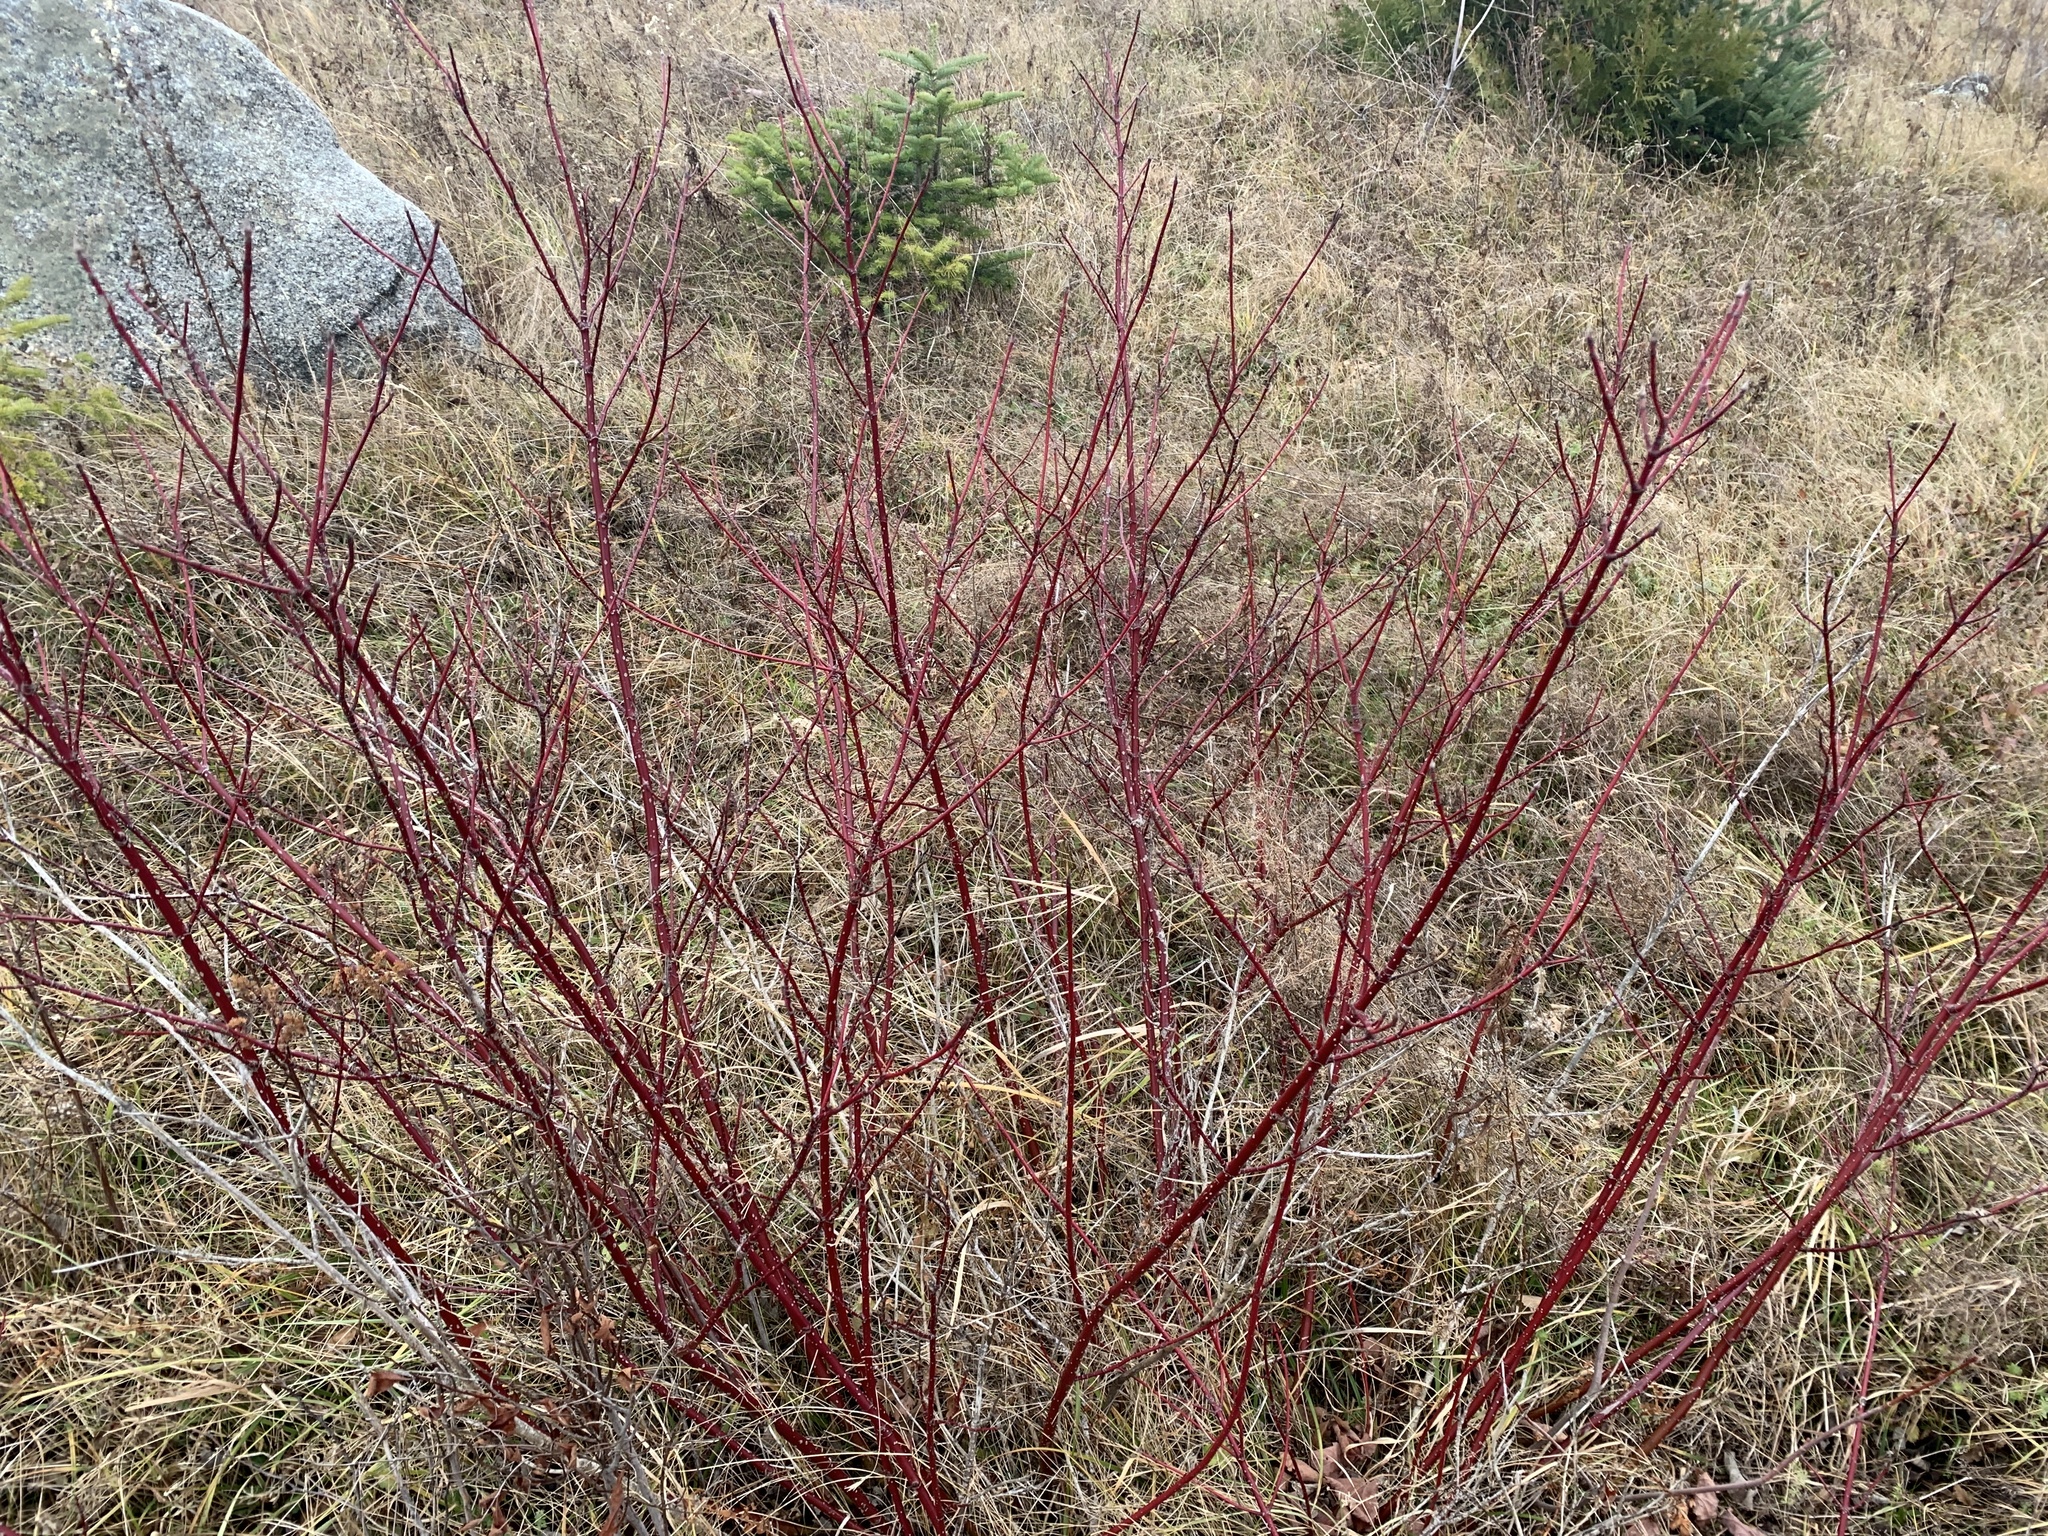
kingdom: Plantae
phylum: Tracheophyta
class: Magnoliopsida
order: Cornales
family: Cornaceae
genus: Cornus
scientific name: Cornus sericea
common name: Red-osier dogwood
